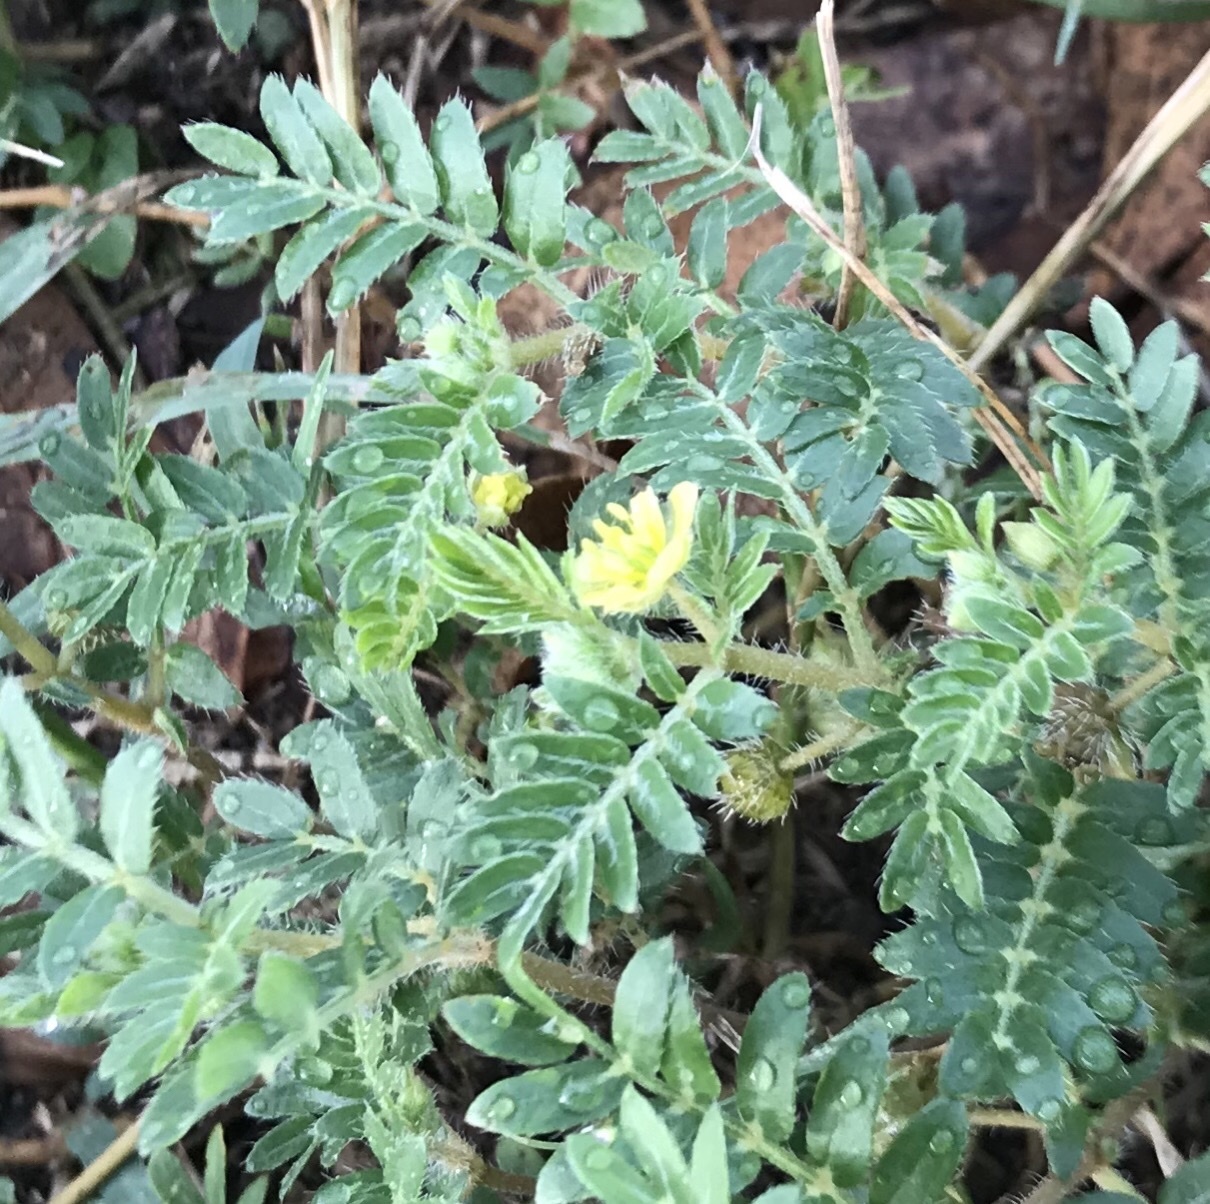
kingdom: Plantae
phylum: Tracheophyta
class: Magnoliopsida
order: Zygophyllales
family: Zygophyllaceae
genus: Tribulus
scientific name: Tribulus terrestris
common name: Puncturevine
